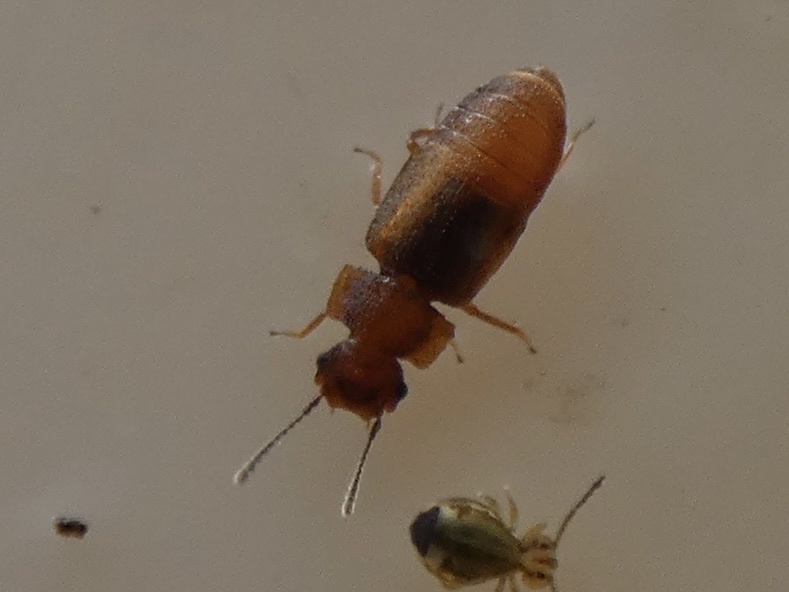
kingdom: Animalia
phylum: Arthropoda
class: Insecta
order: Coleoptera
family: Staphylinidae
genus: Metopsia
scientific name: Metopsia clypeata
